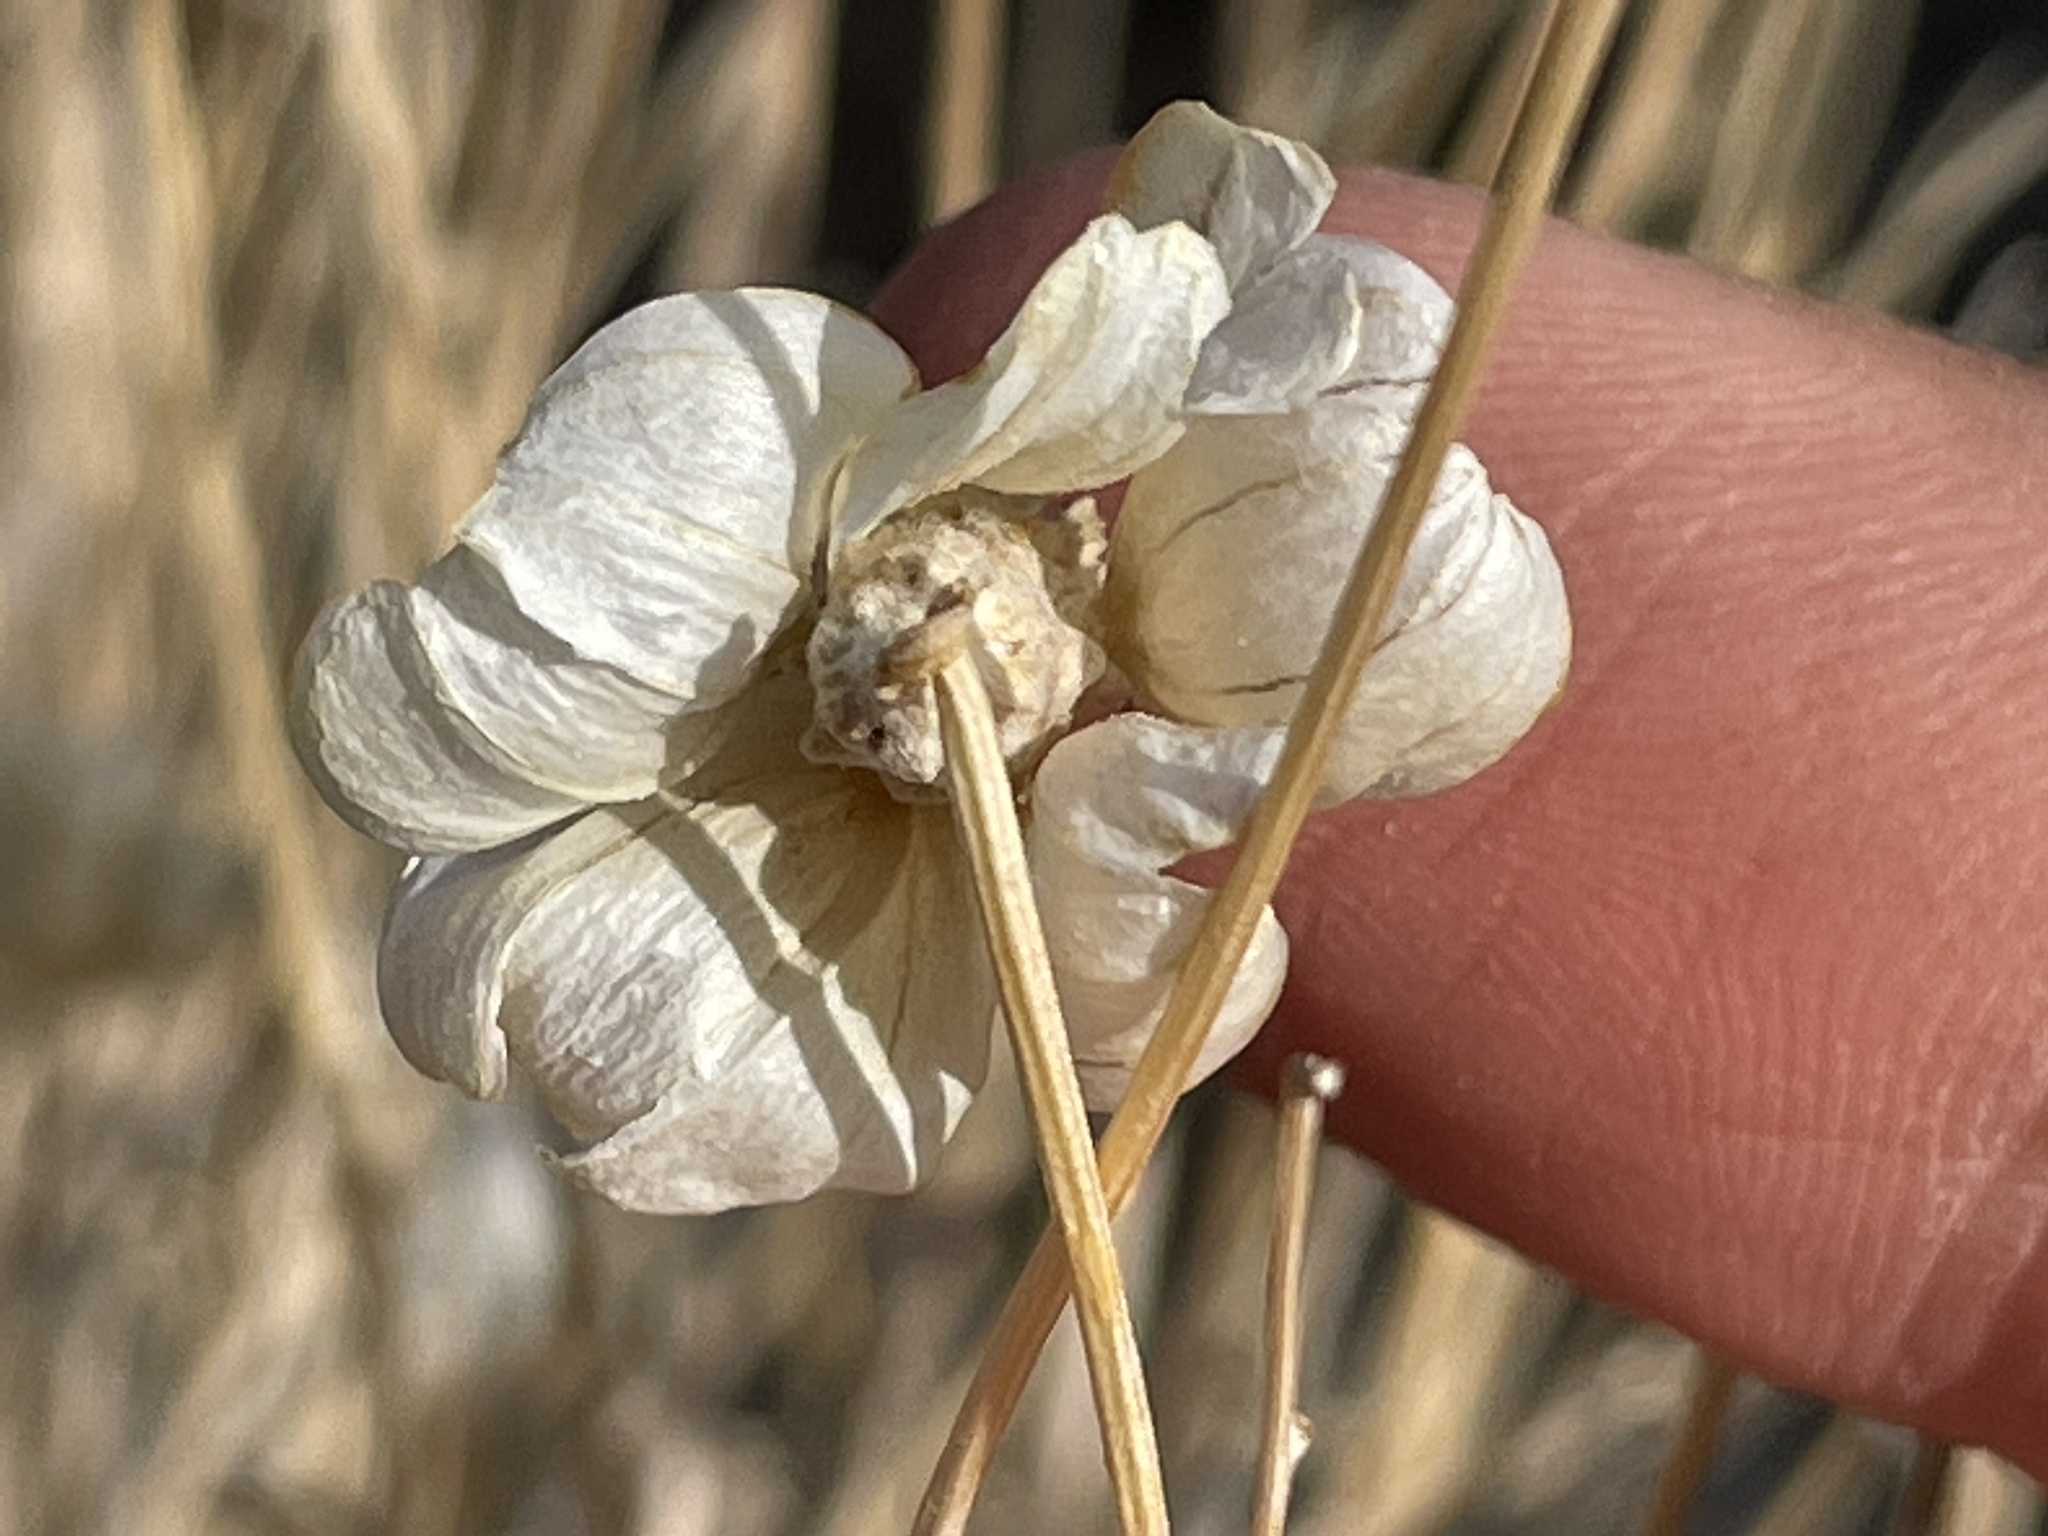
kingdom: Plantae
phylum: Tracheophyta
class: Magnoliopsida
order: Asterales
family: Asteraceae
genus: Psilostrophe
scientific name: Psilostrophe cooperi
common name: White-stem paper-flower
